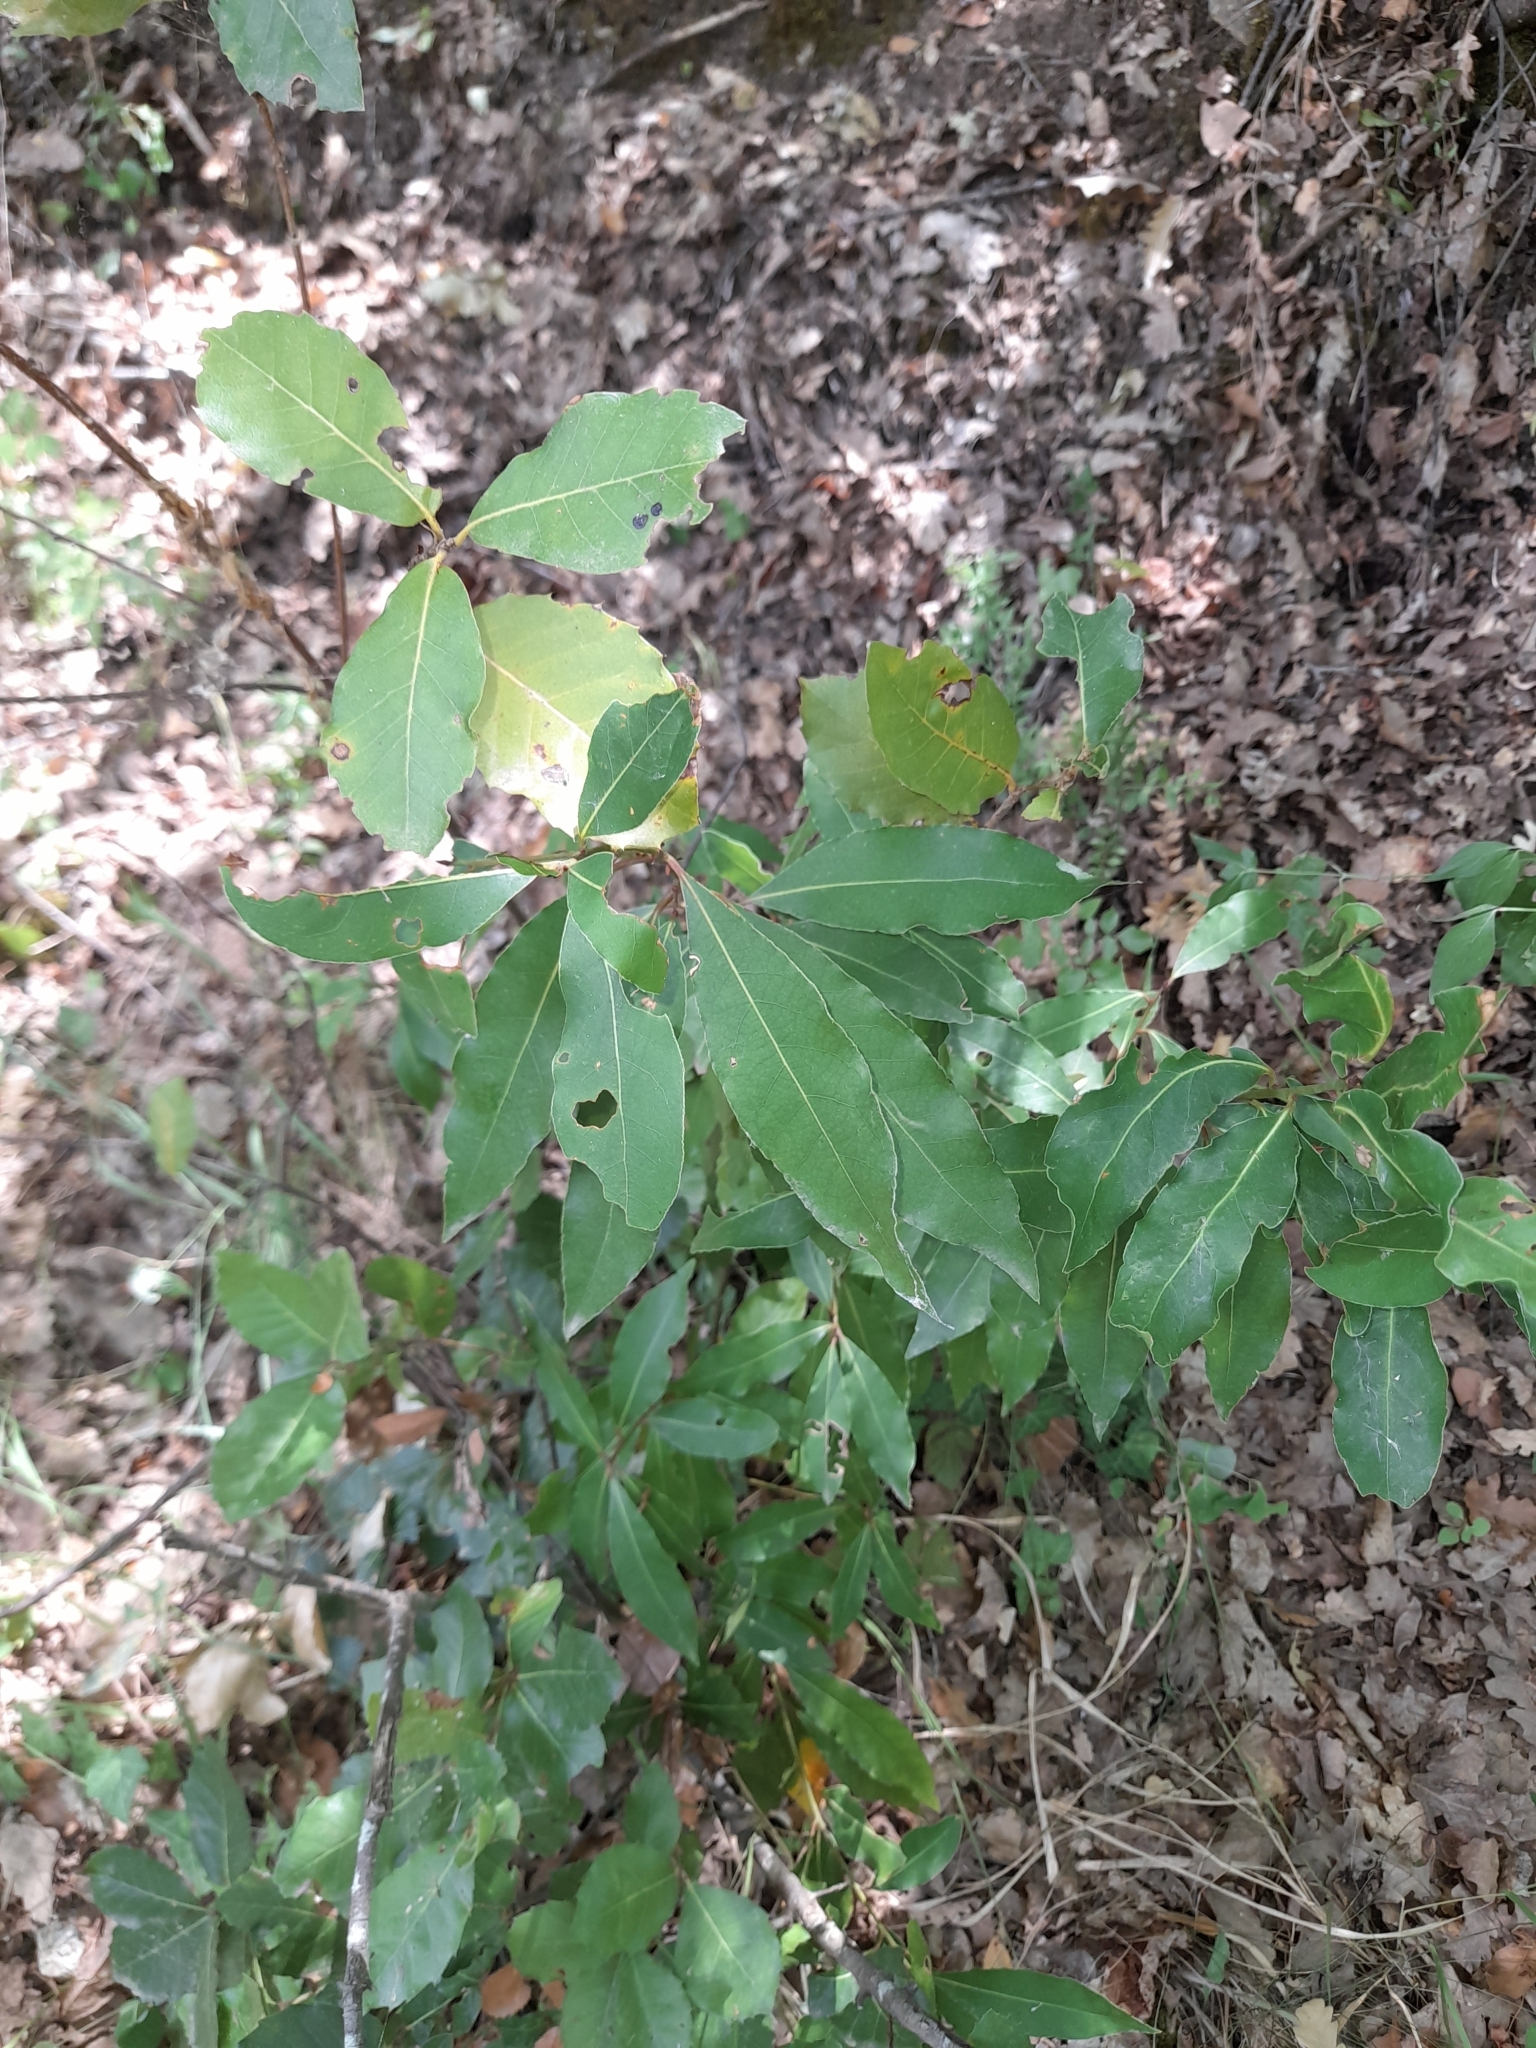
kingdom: Plantae
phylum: Tracheophyta
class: Magnoliopsida
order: Fabales
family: Fabaceae
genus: Cercis
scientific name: Cercis siliquastrum
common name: Judas tree
